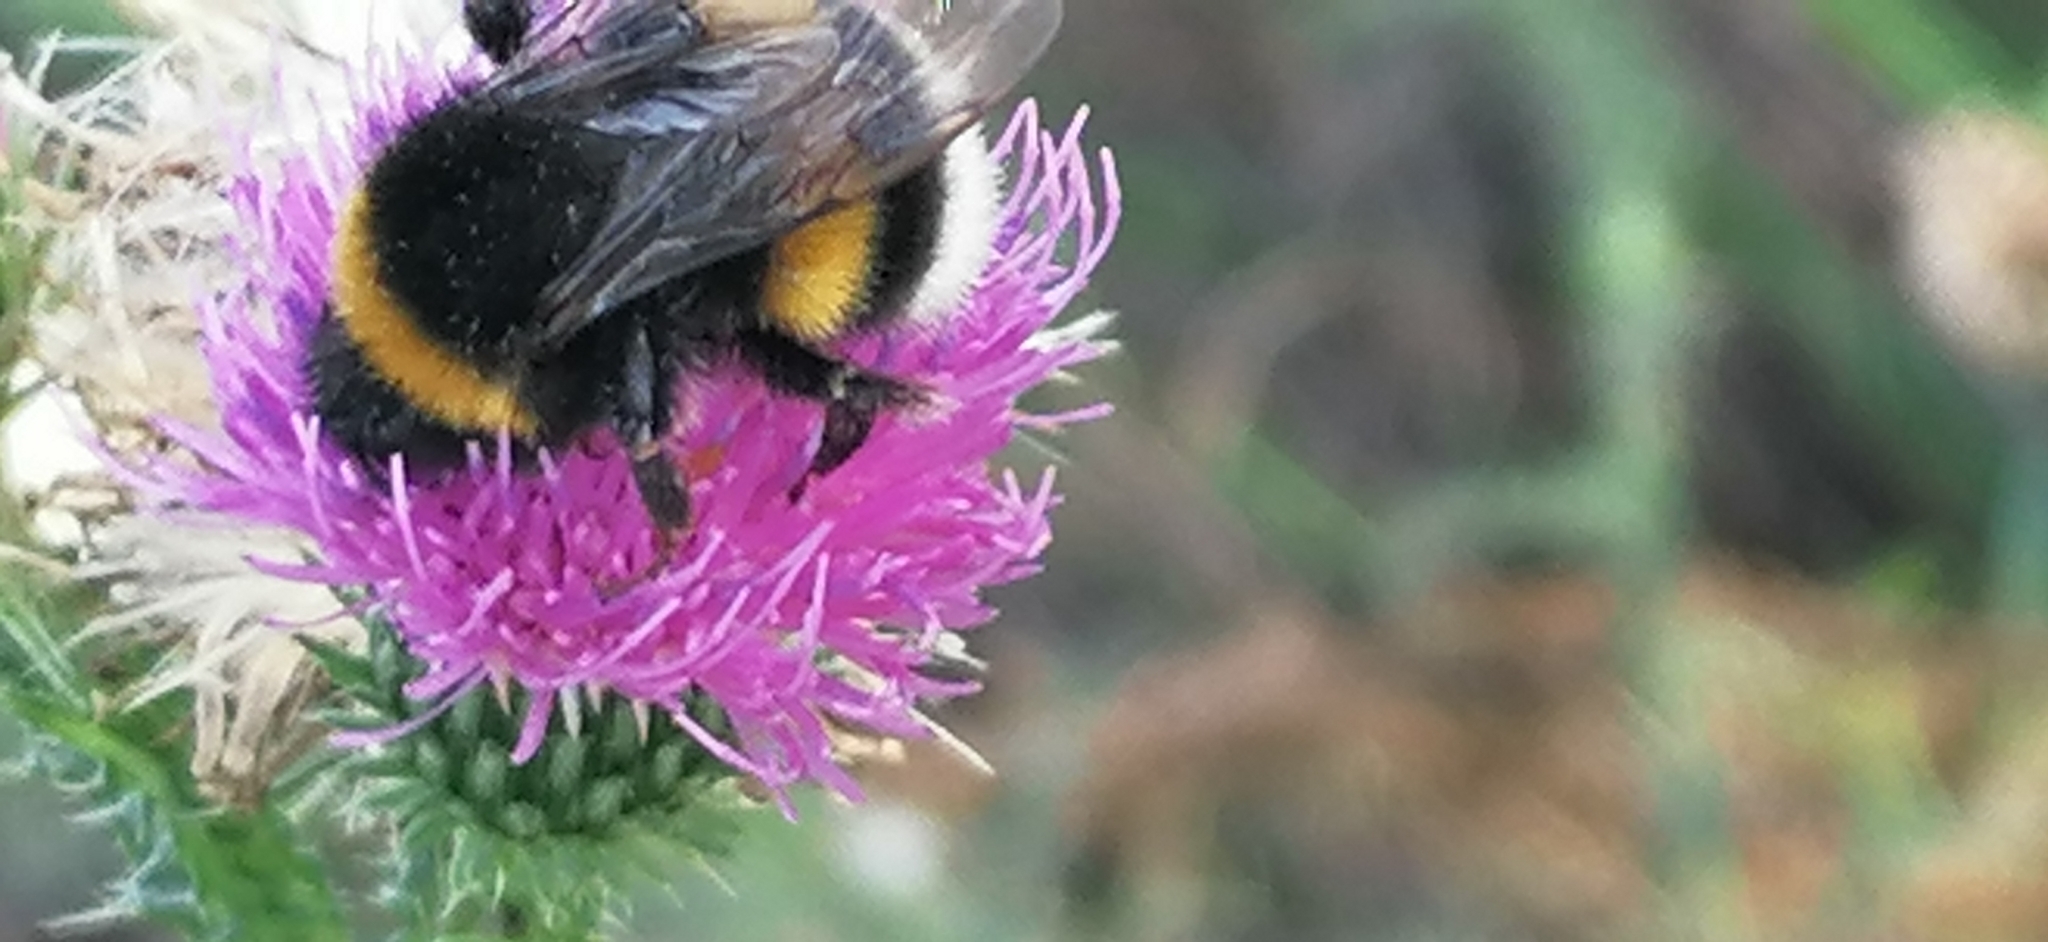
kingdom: Animalia
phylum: Arthropoda
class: Insecta
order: Hymenoptera
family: Apidae
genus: Bombus
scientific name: Bombus terrestris
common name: Buff-tailed bumblebee
